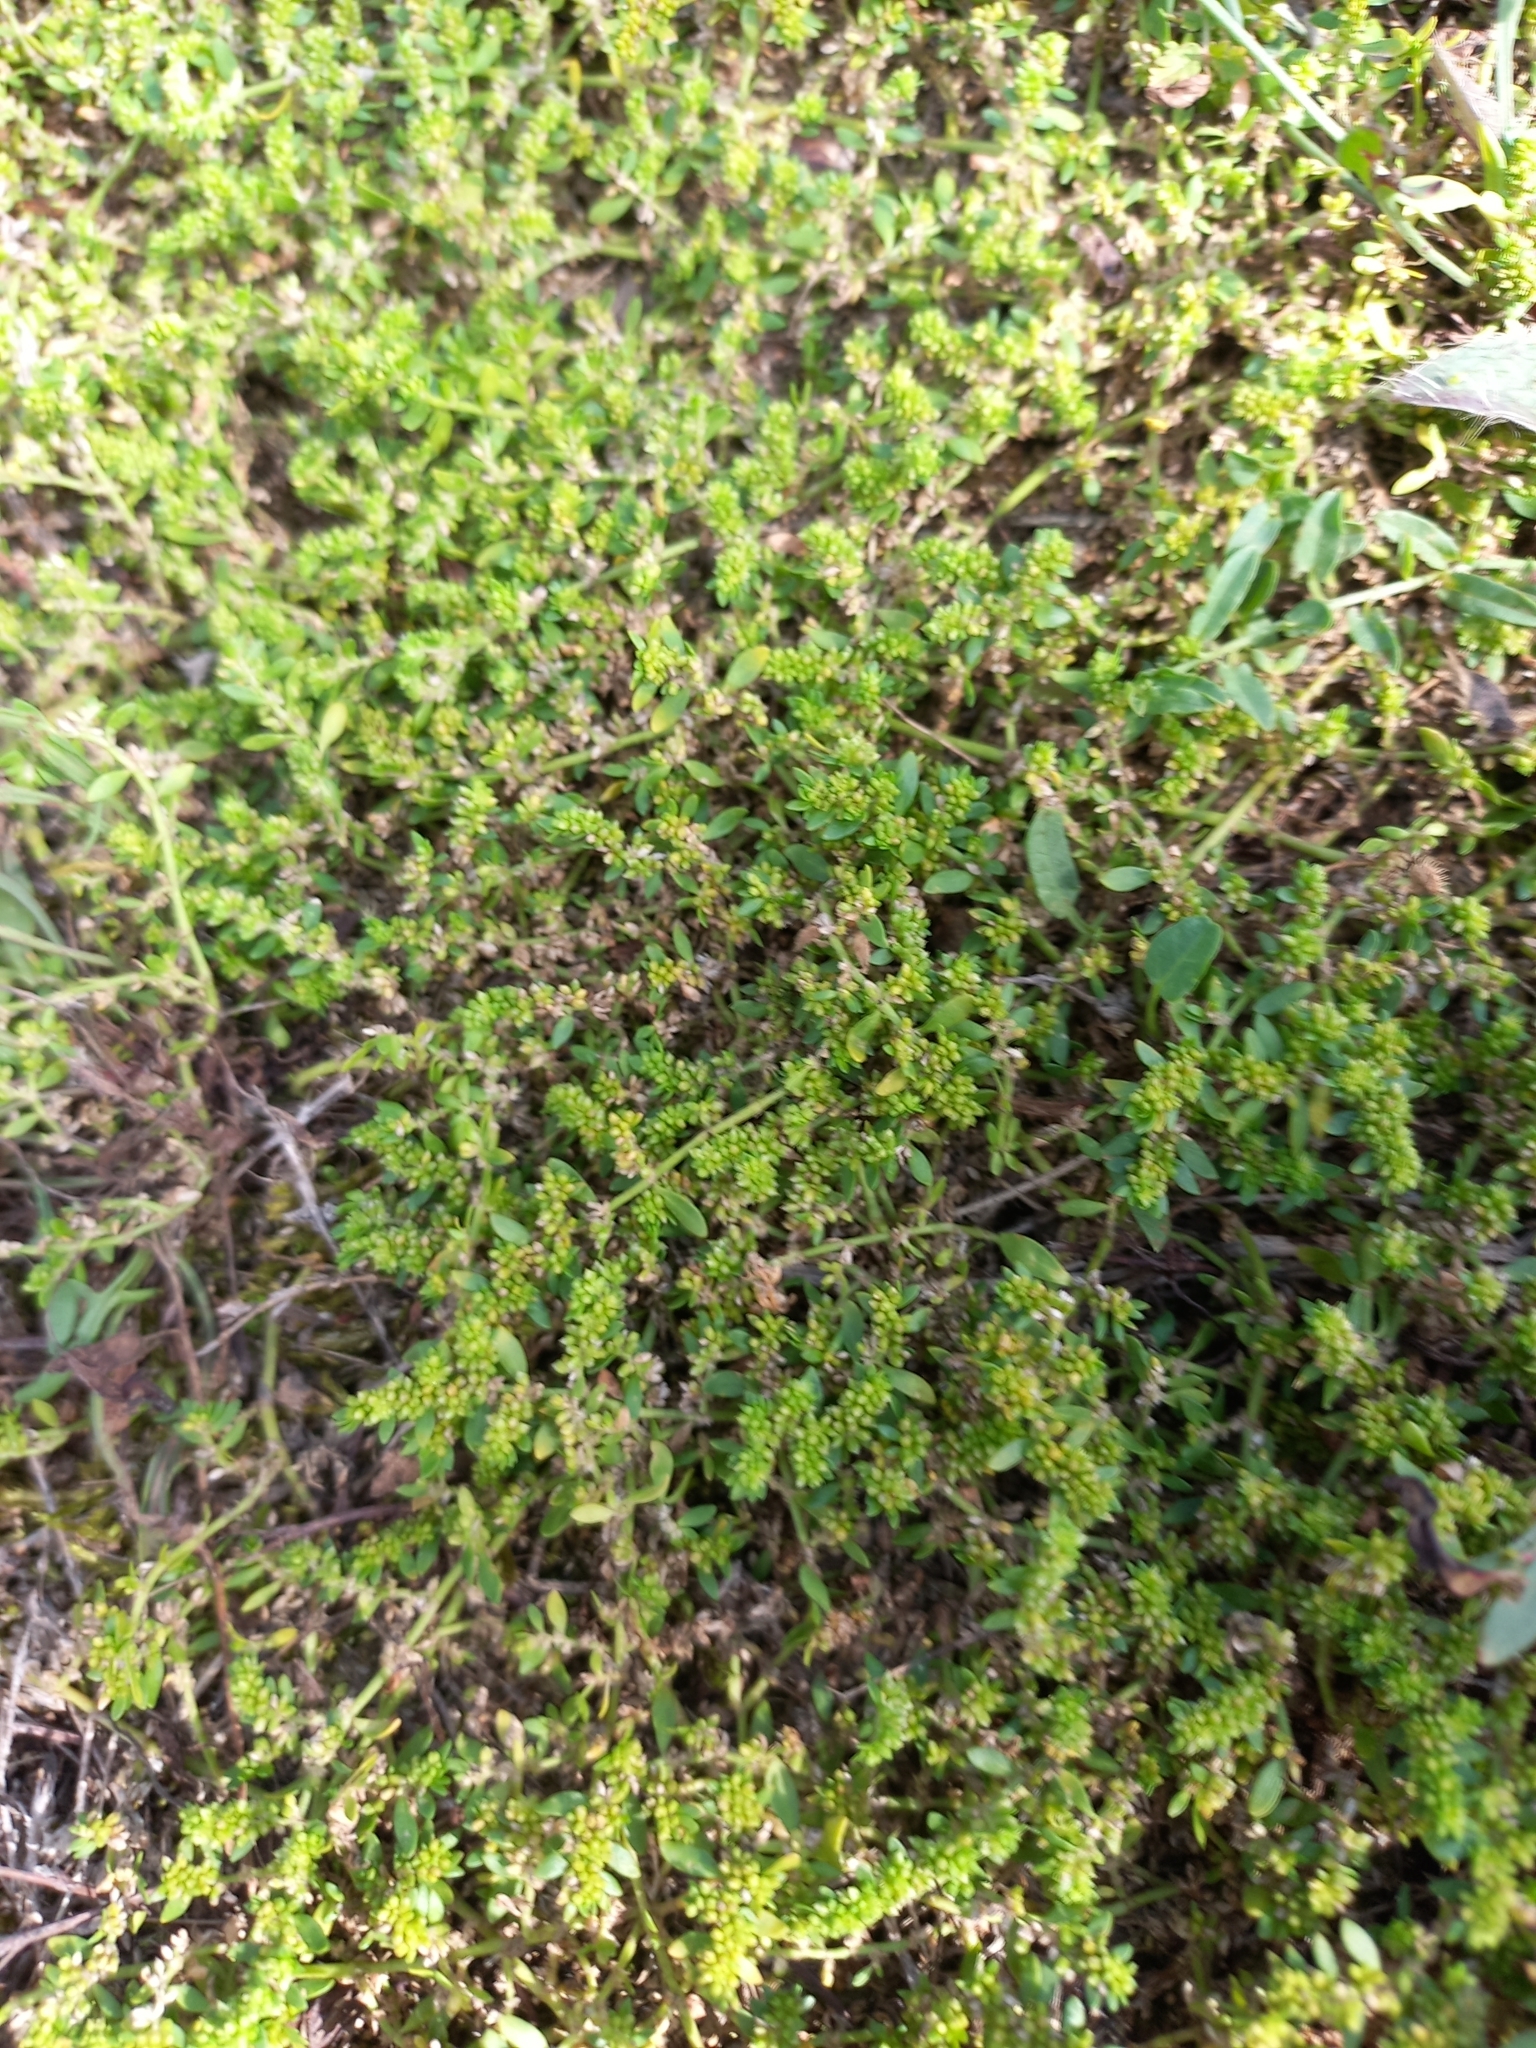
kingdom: Plantae
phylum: Tracheophyta
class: Magnoliopsida
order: Caryophyllales
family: Caryophyllaceae
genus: Herniaria
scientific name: Herniaria glabra
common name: Smooth rupturewort
